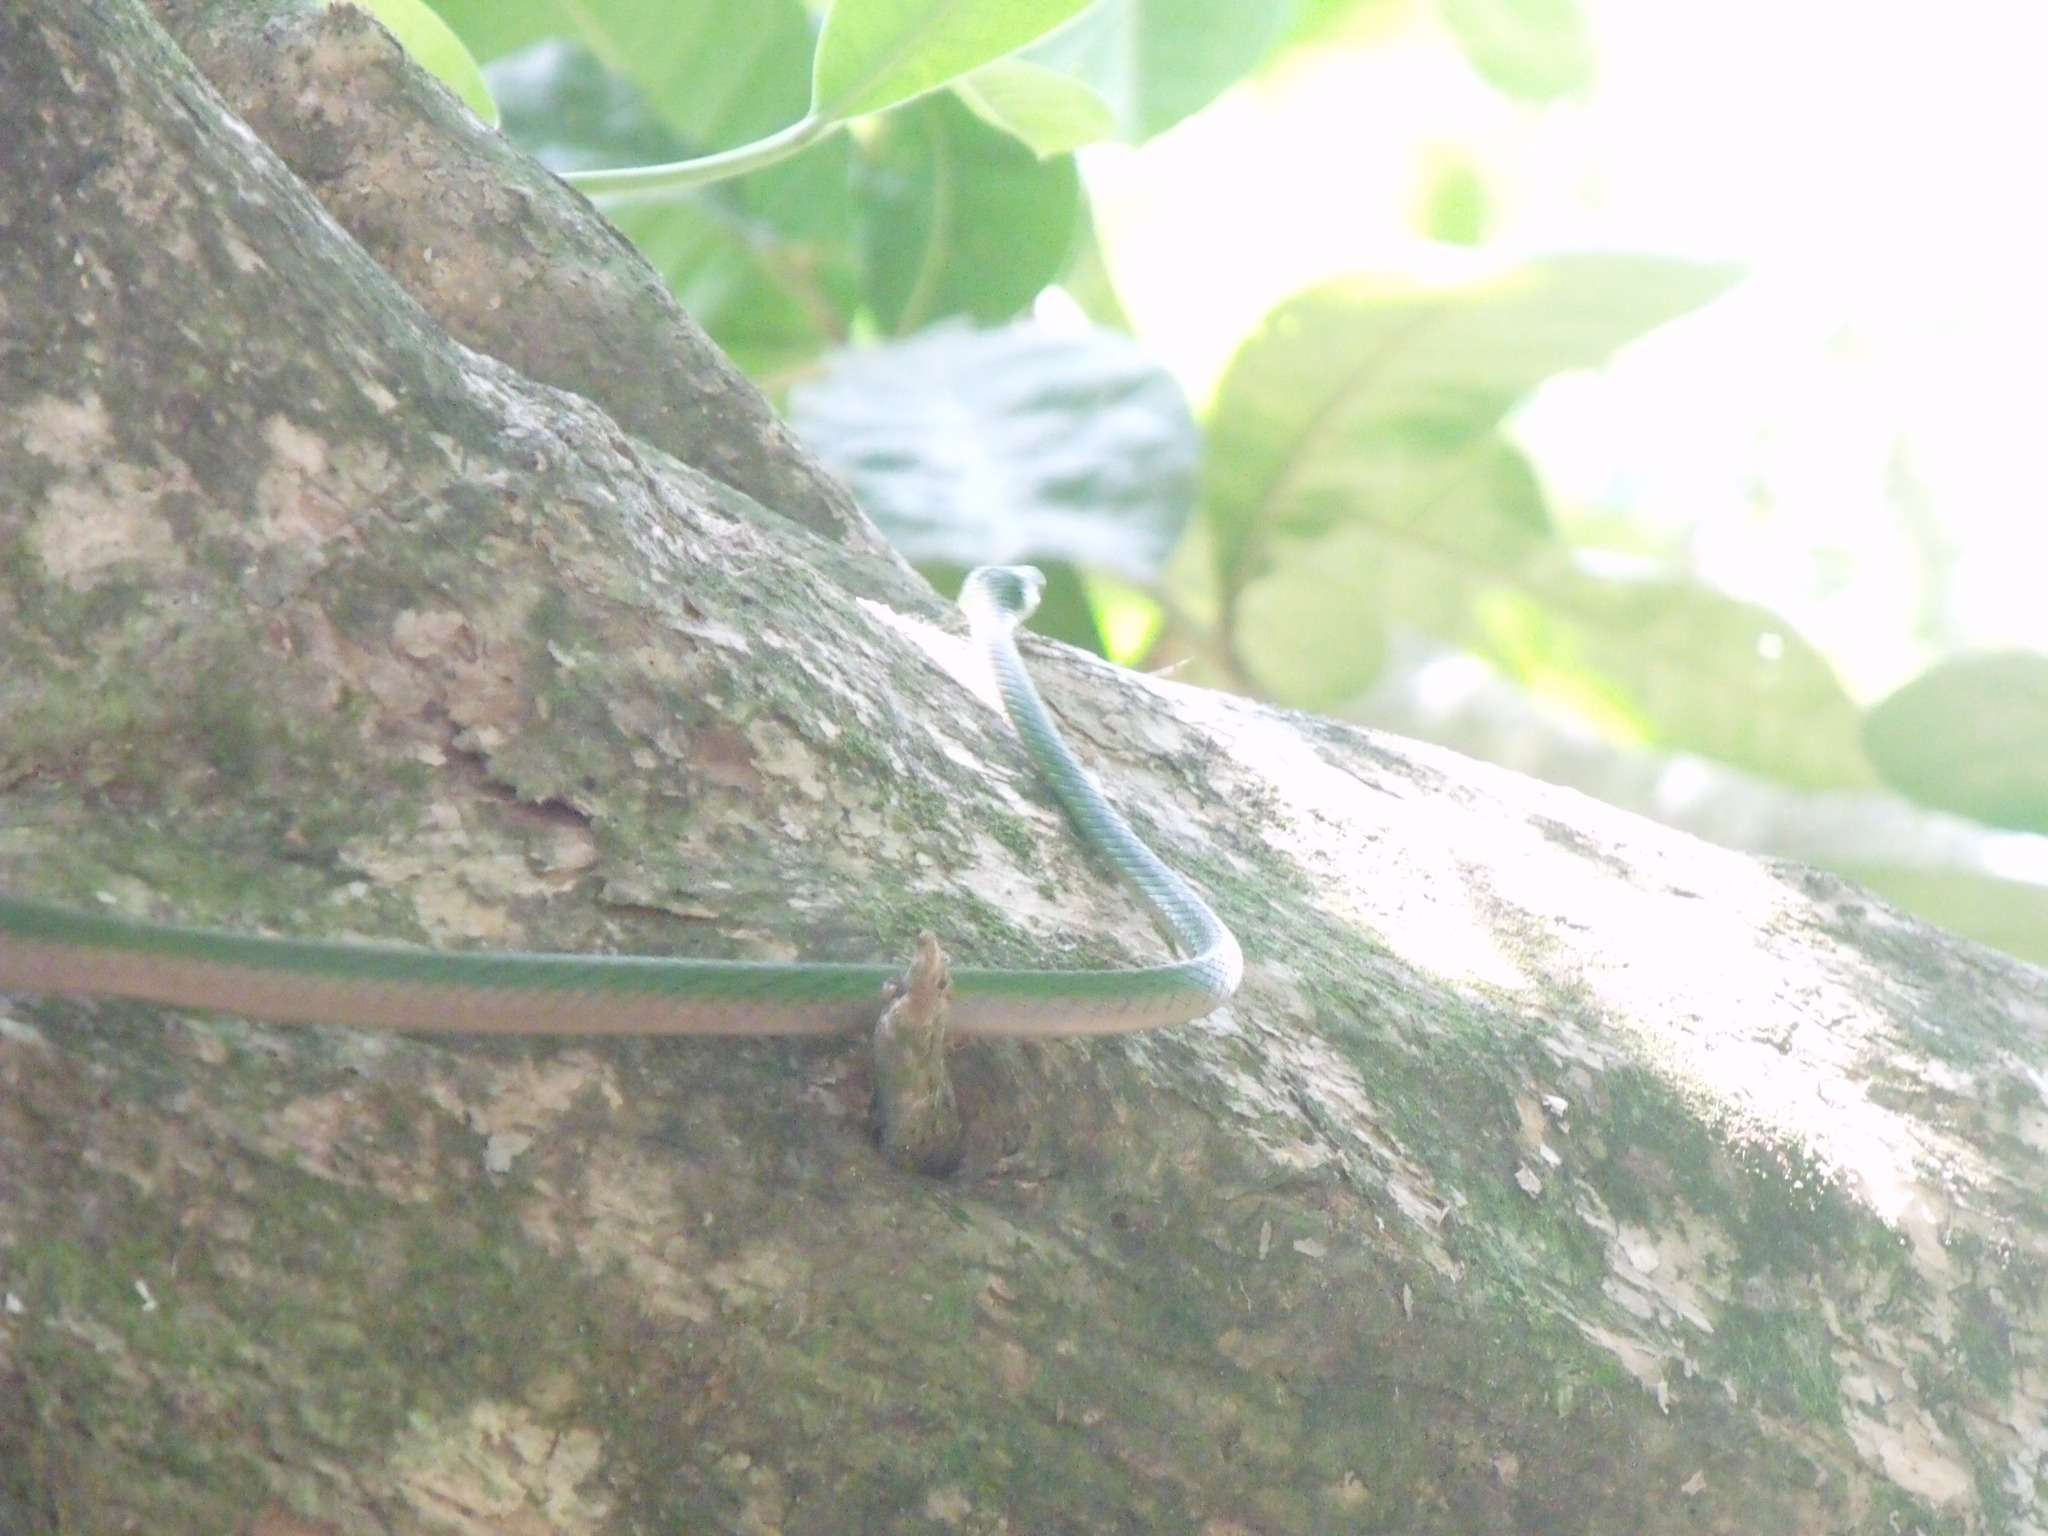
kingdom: Animalia
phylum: Chordata
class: Squamata
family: Colubridae
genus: Leptophis
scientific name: Leptophis ahaetulla
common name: Parrot snake
